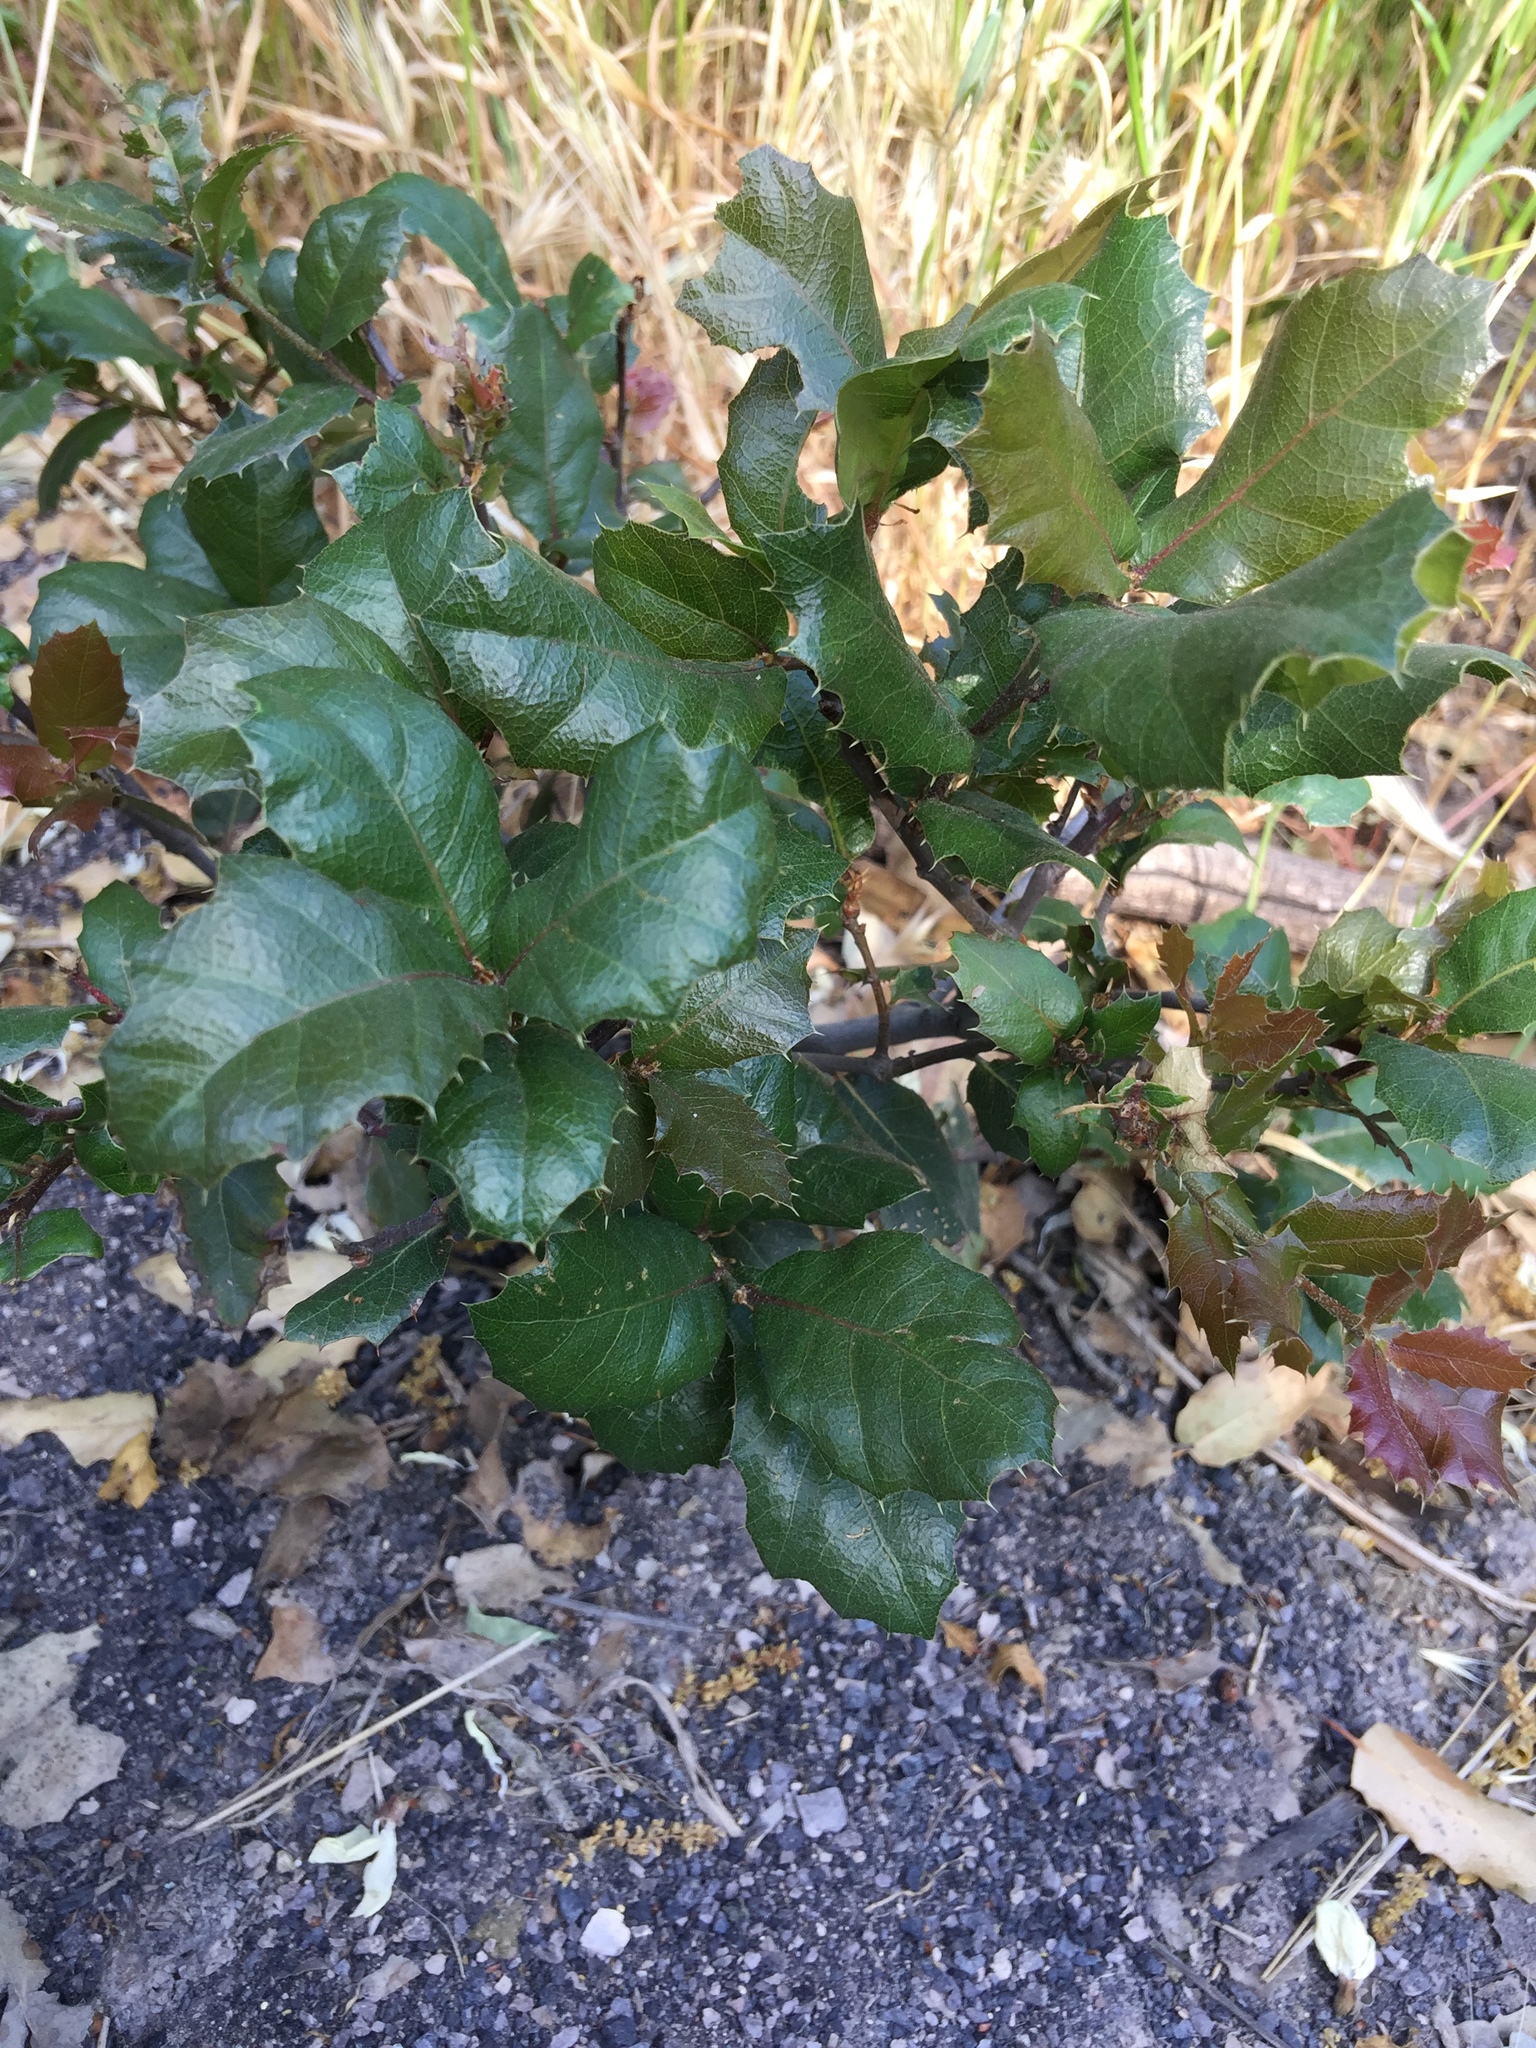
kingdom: Plantae
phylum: Tracheophyta
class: Magnoliopsida
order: Fagales
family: Fagaceae
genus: Quercus
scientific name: Quercus agrifolia
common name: California live oak
